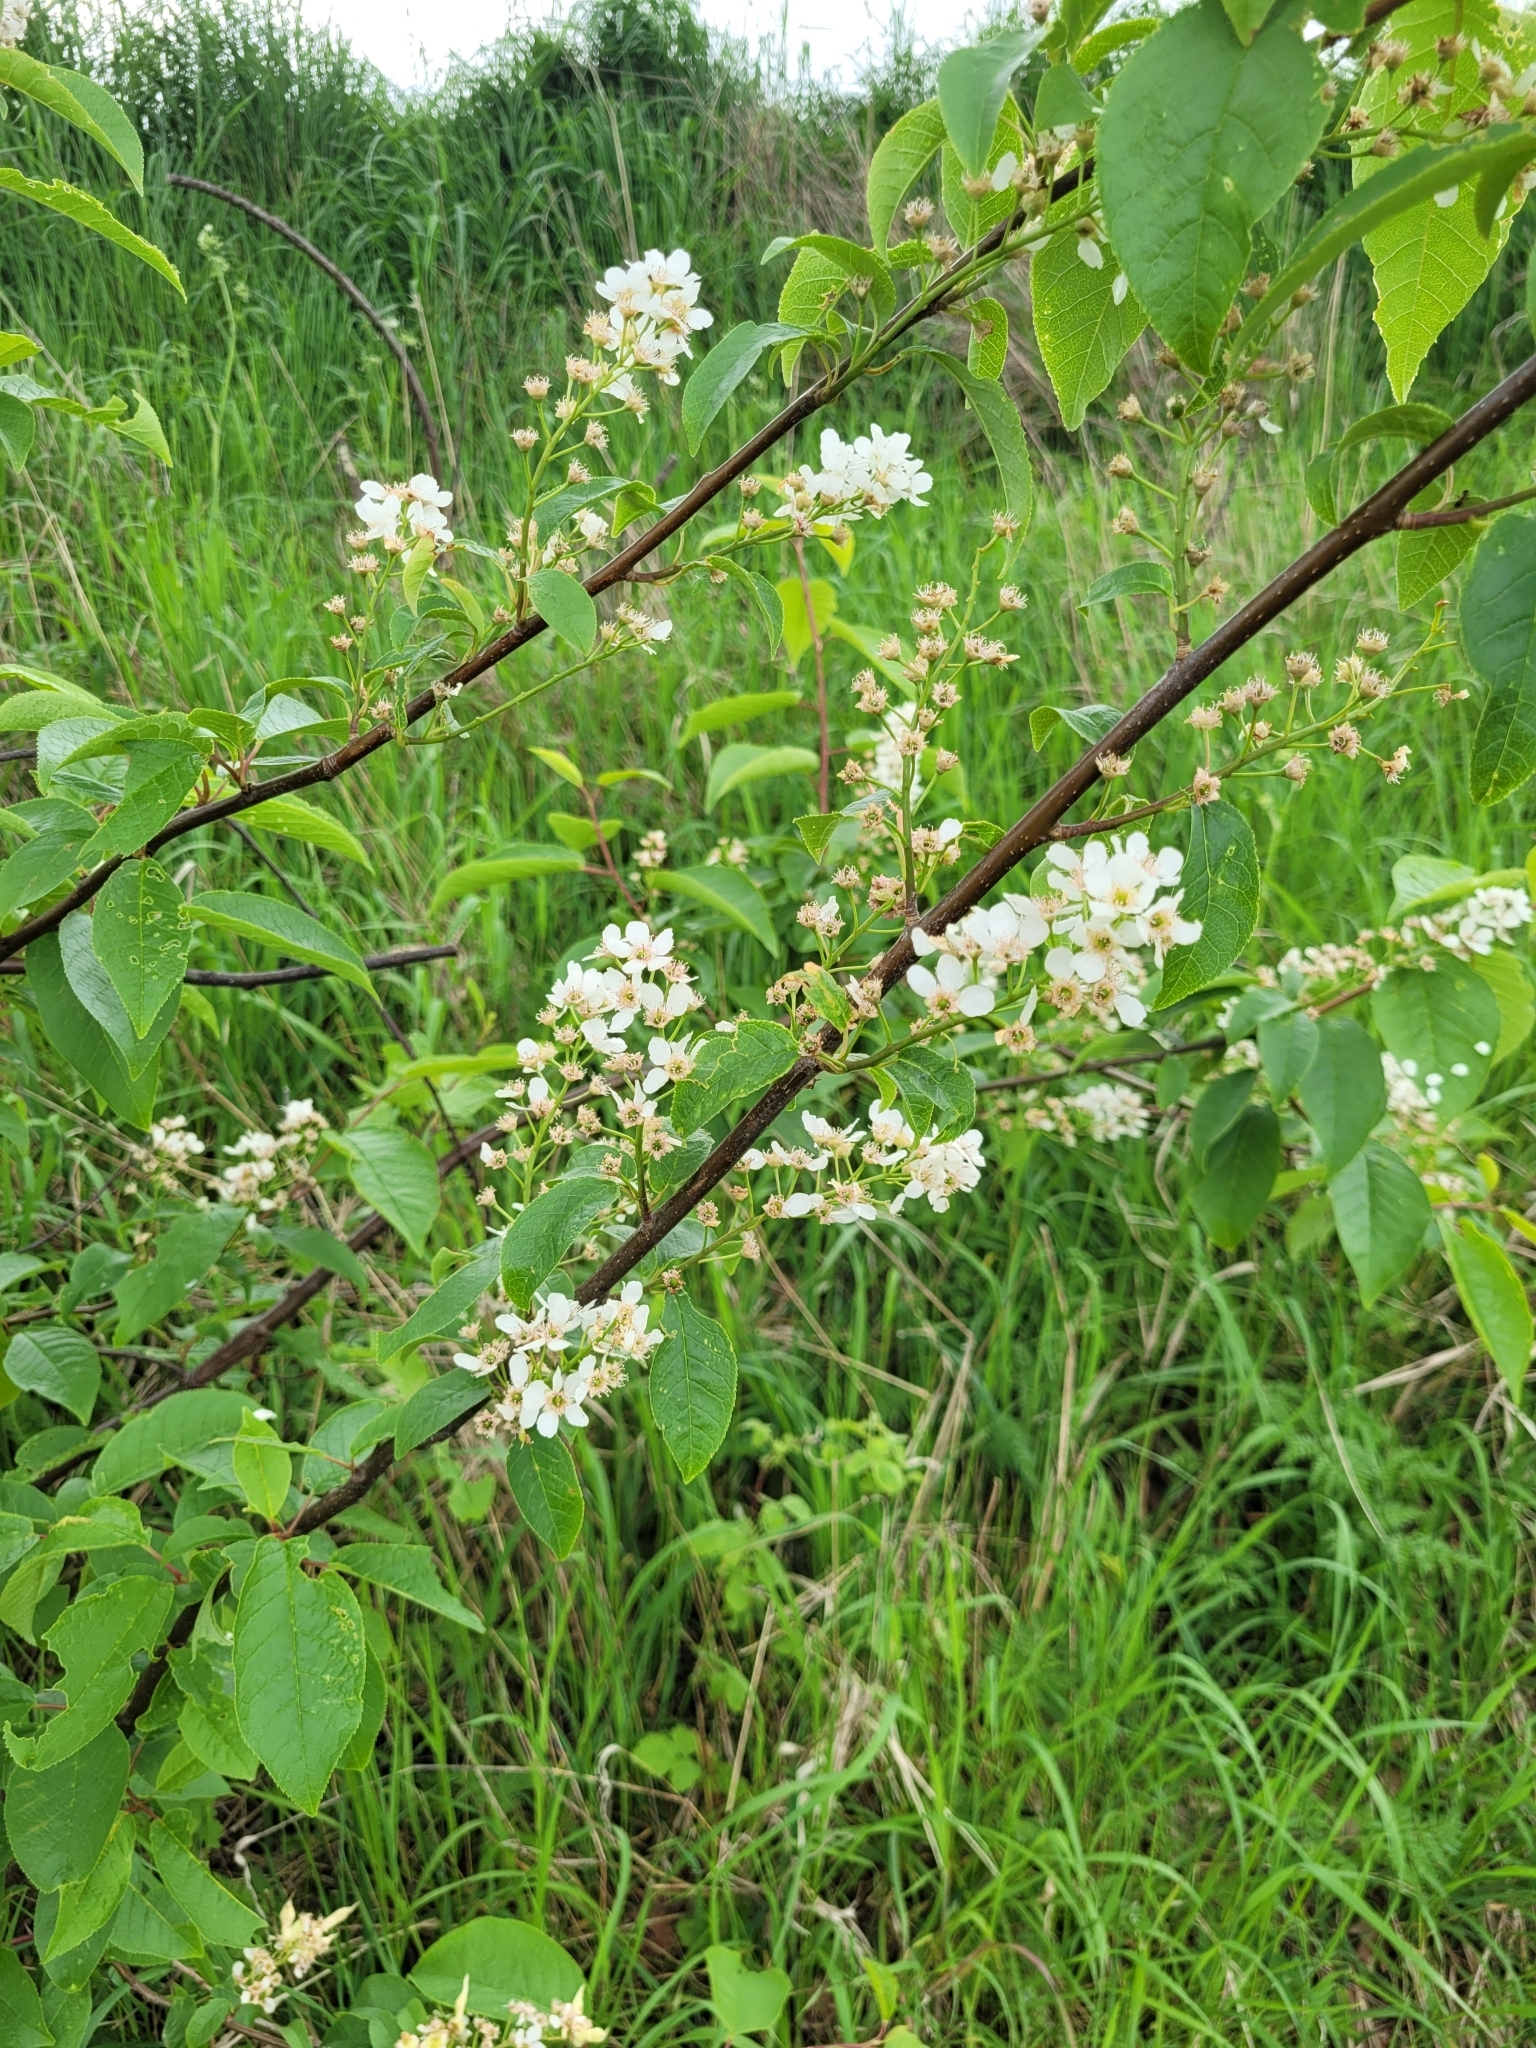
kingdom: Plantae
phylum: Tracheophyta
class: Magnoliopsida
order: Rosales
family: Rosaceae
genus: Prunus
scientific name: Prunus padus
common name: Bird cherry
